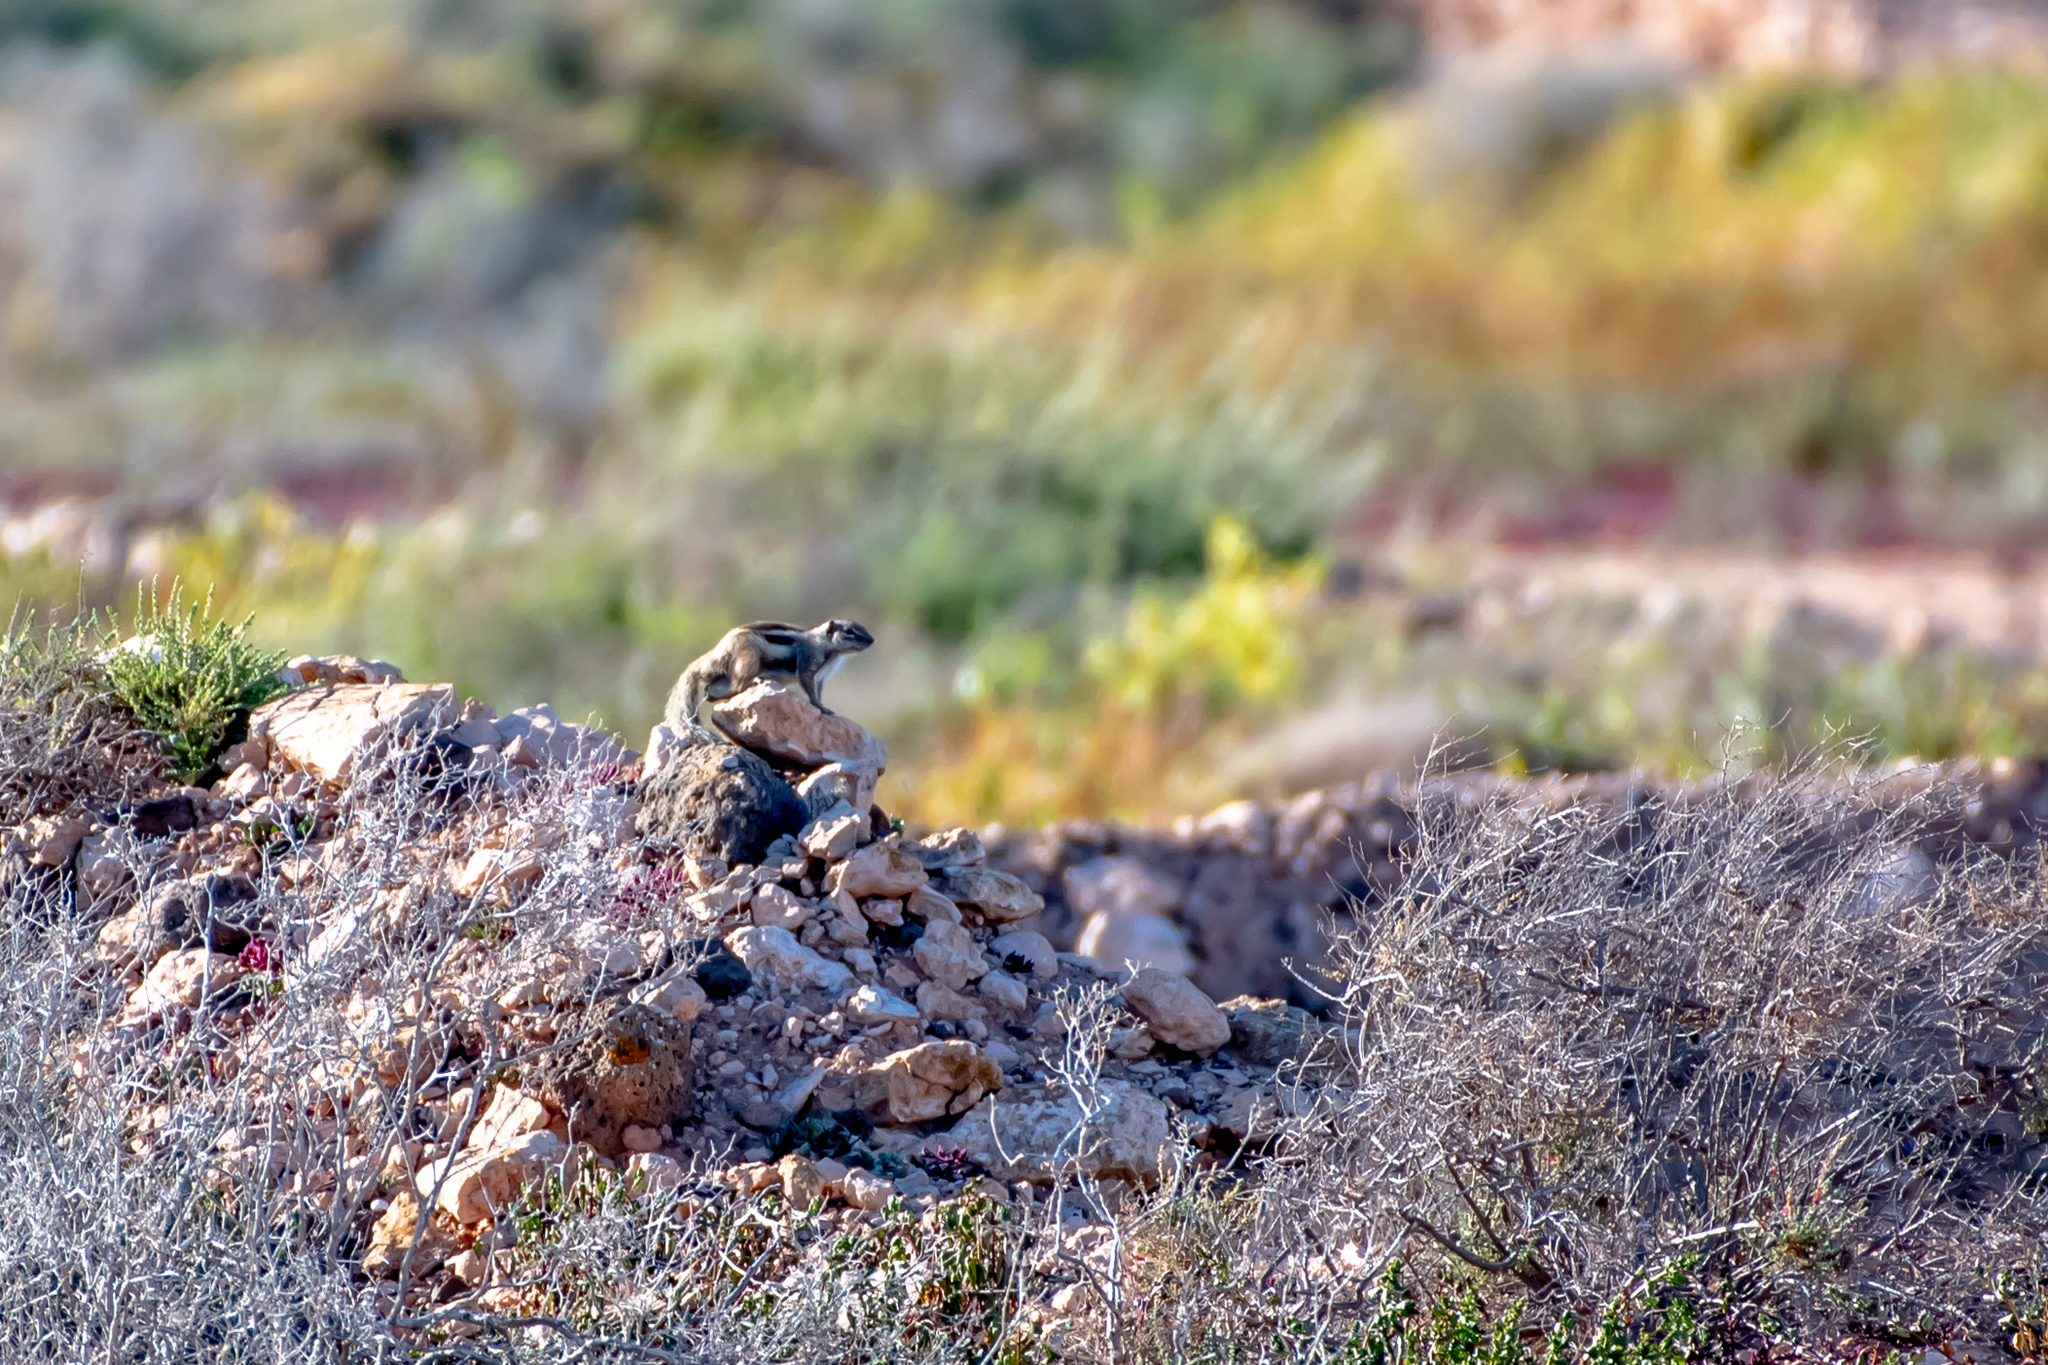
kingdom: Animalia
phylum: Chordata
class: Mammalia
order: Rodentia
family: Sciuridae
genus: Atlantoxerus
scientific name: Atlantoxerus getulus
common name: Barbary ground squirrel
